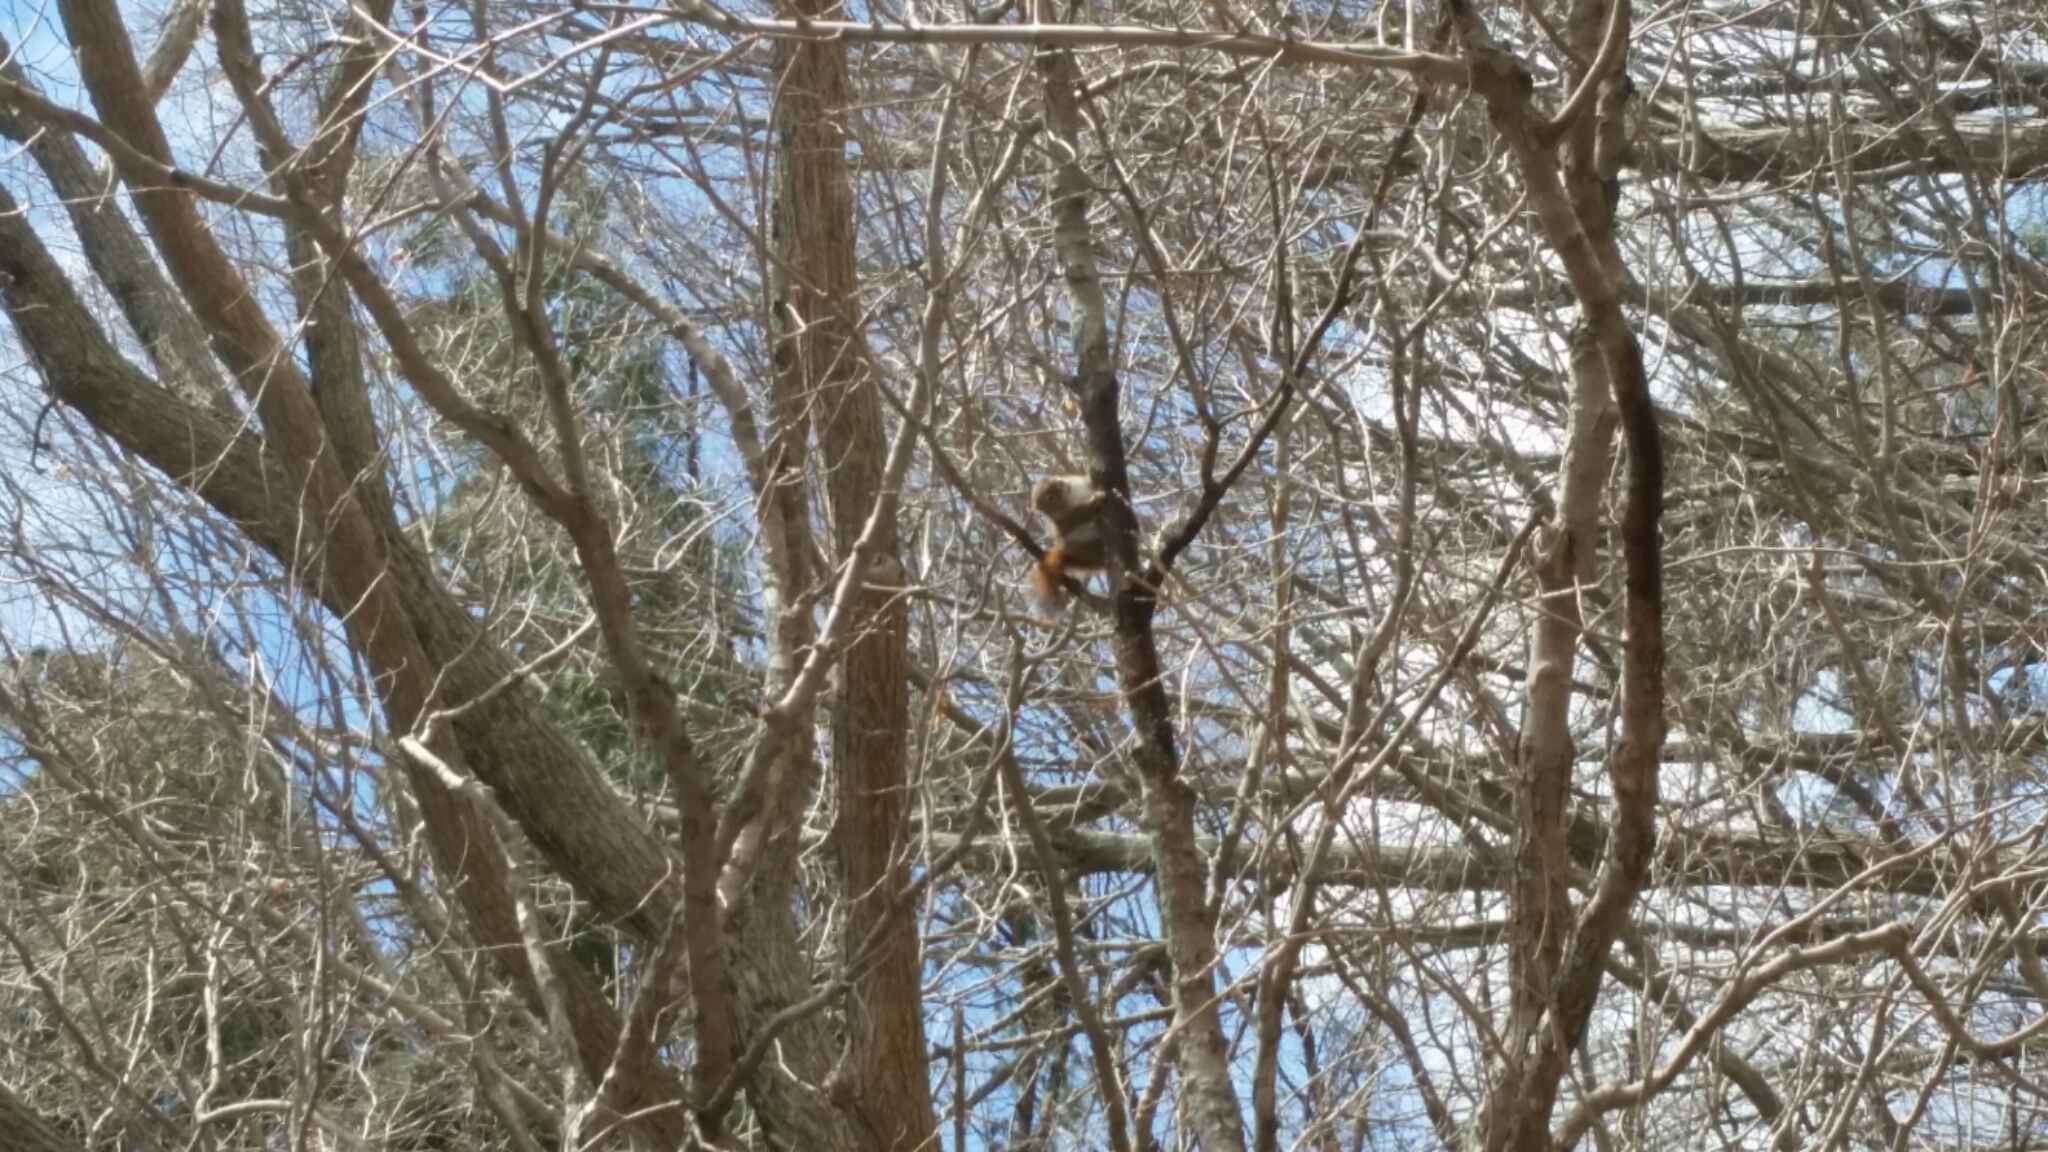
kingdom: Animalia
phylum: Chordata
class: Mammalia
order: Rodentia
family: Sciuridae
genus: Tamiasciurus
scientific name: Tamiasciurus hudsonicus
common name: Red squirrel
